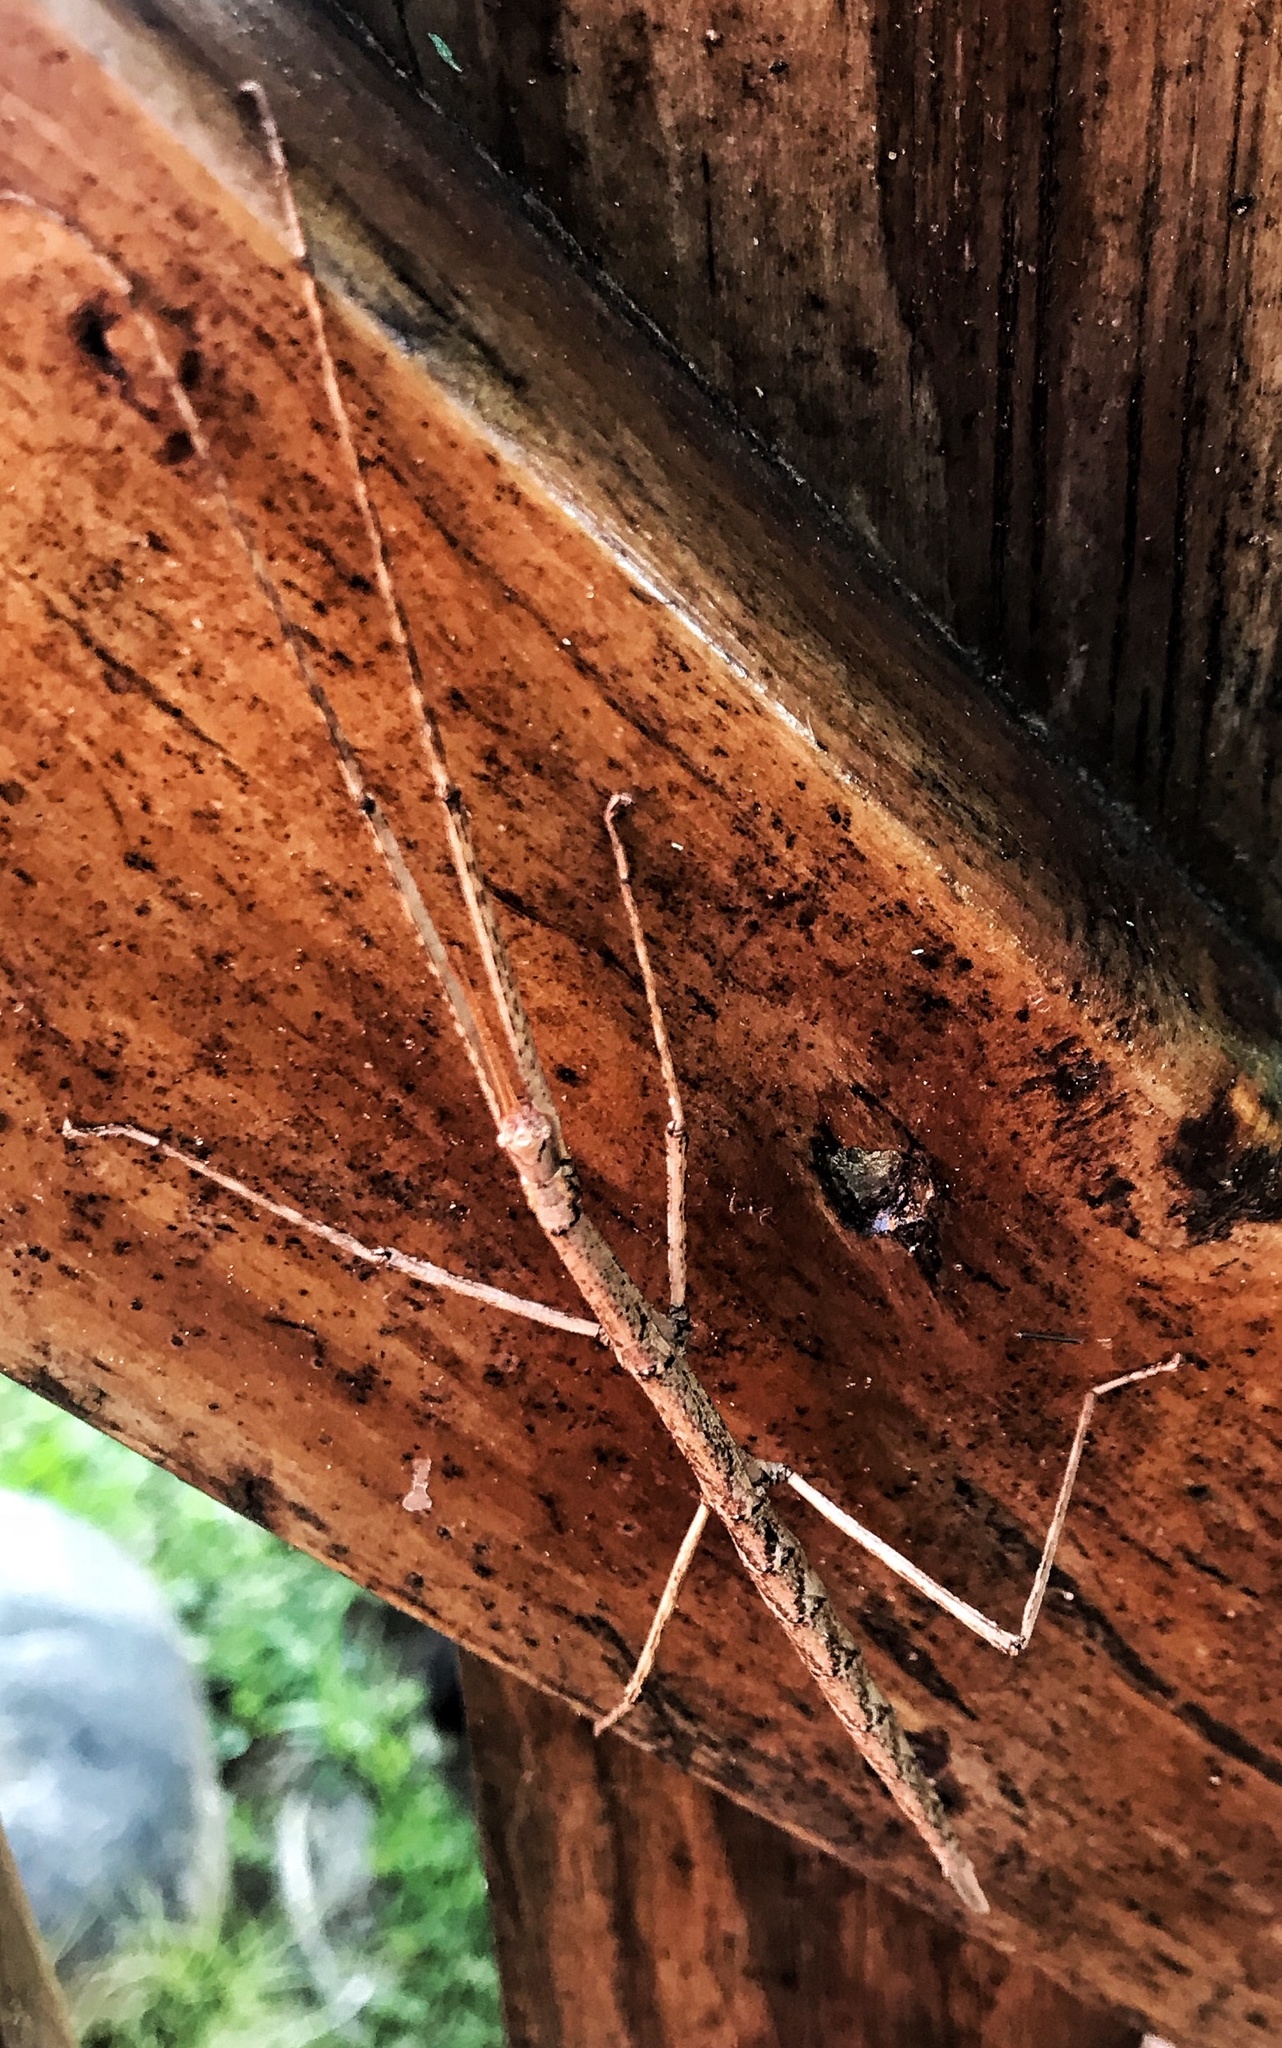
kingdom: Animalia
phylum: Arthropoda
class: Insecta
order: Phasmida
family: Bacillidae
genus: Phalces
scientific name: Phalces brevis
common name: Cape stick insect
